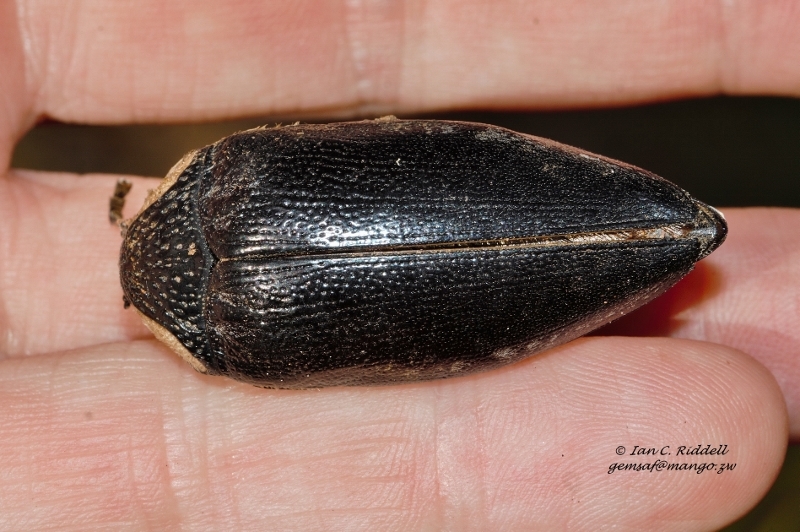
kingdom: Animalia
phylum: Arthropoda
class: Insecta
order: Coleoptera
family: Buprestidae
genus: Sternocera
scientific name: Sternocera orissa
